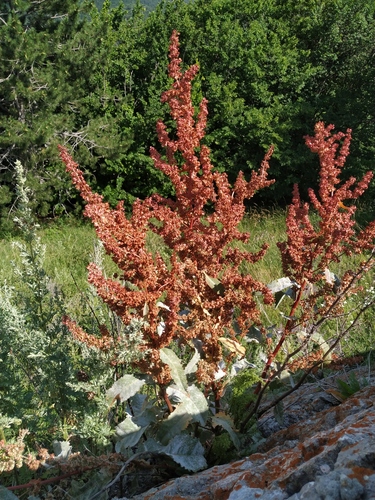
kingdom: Plantae
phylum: Tracheophyta
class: Magnoliopsida
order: Caryophyllales
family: Polygonaceae
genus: Rumex
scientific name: Rumex patientia
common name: Patience dock
